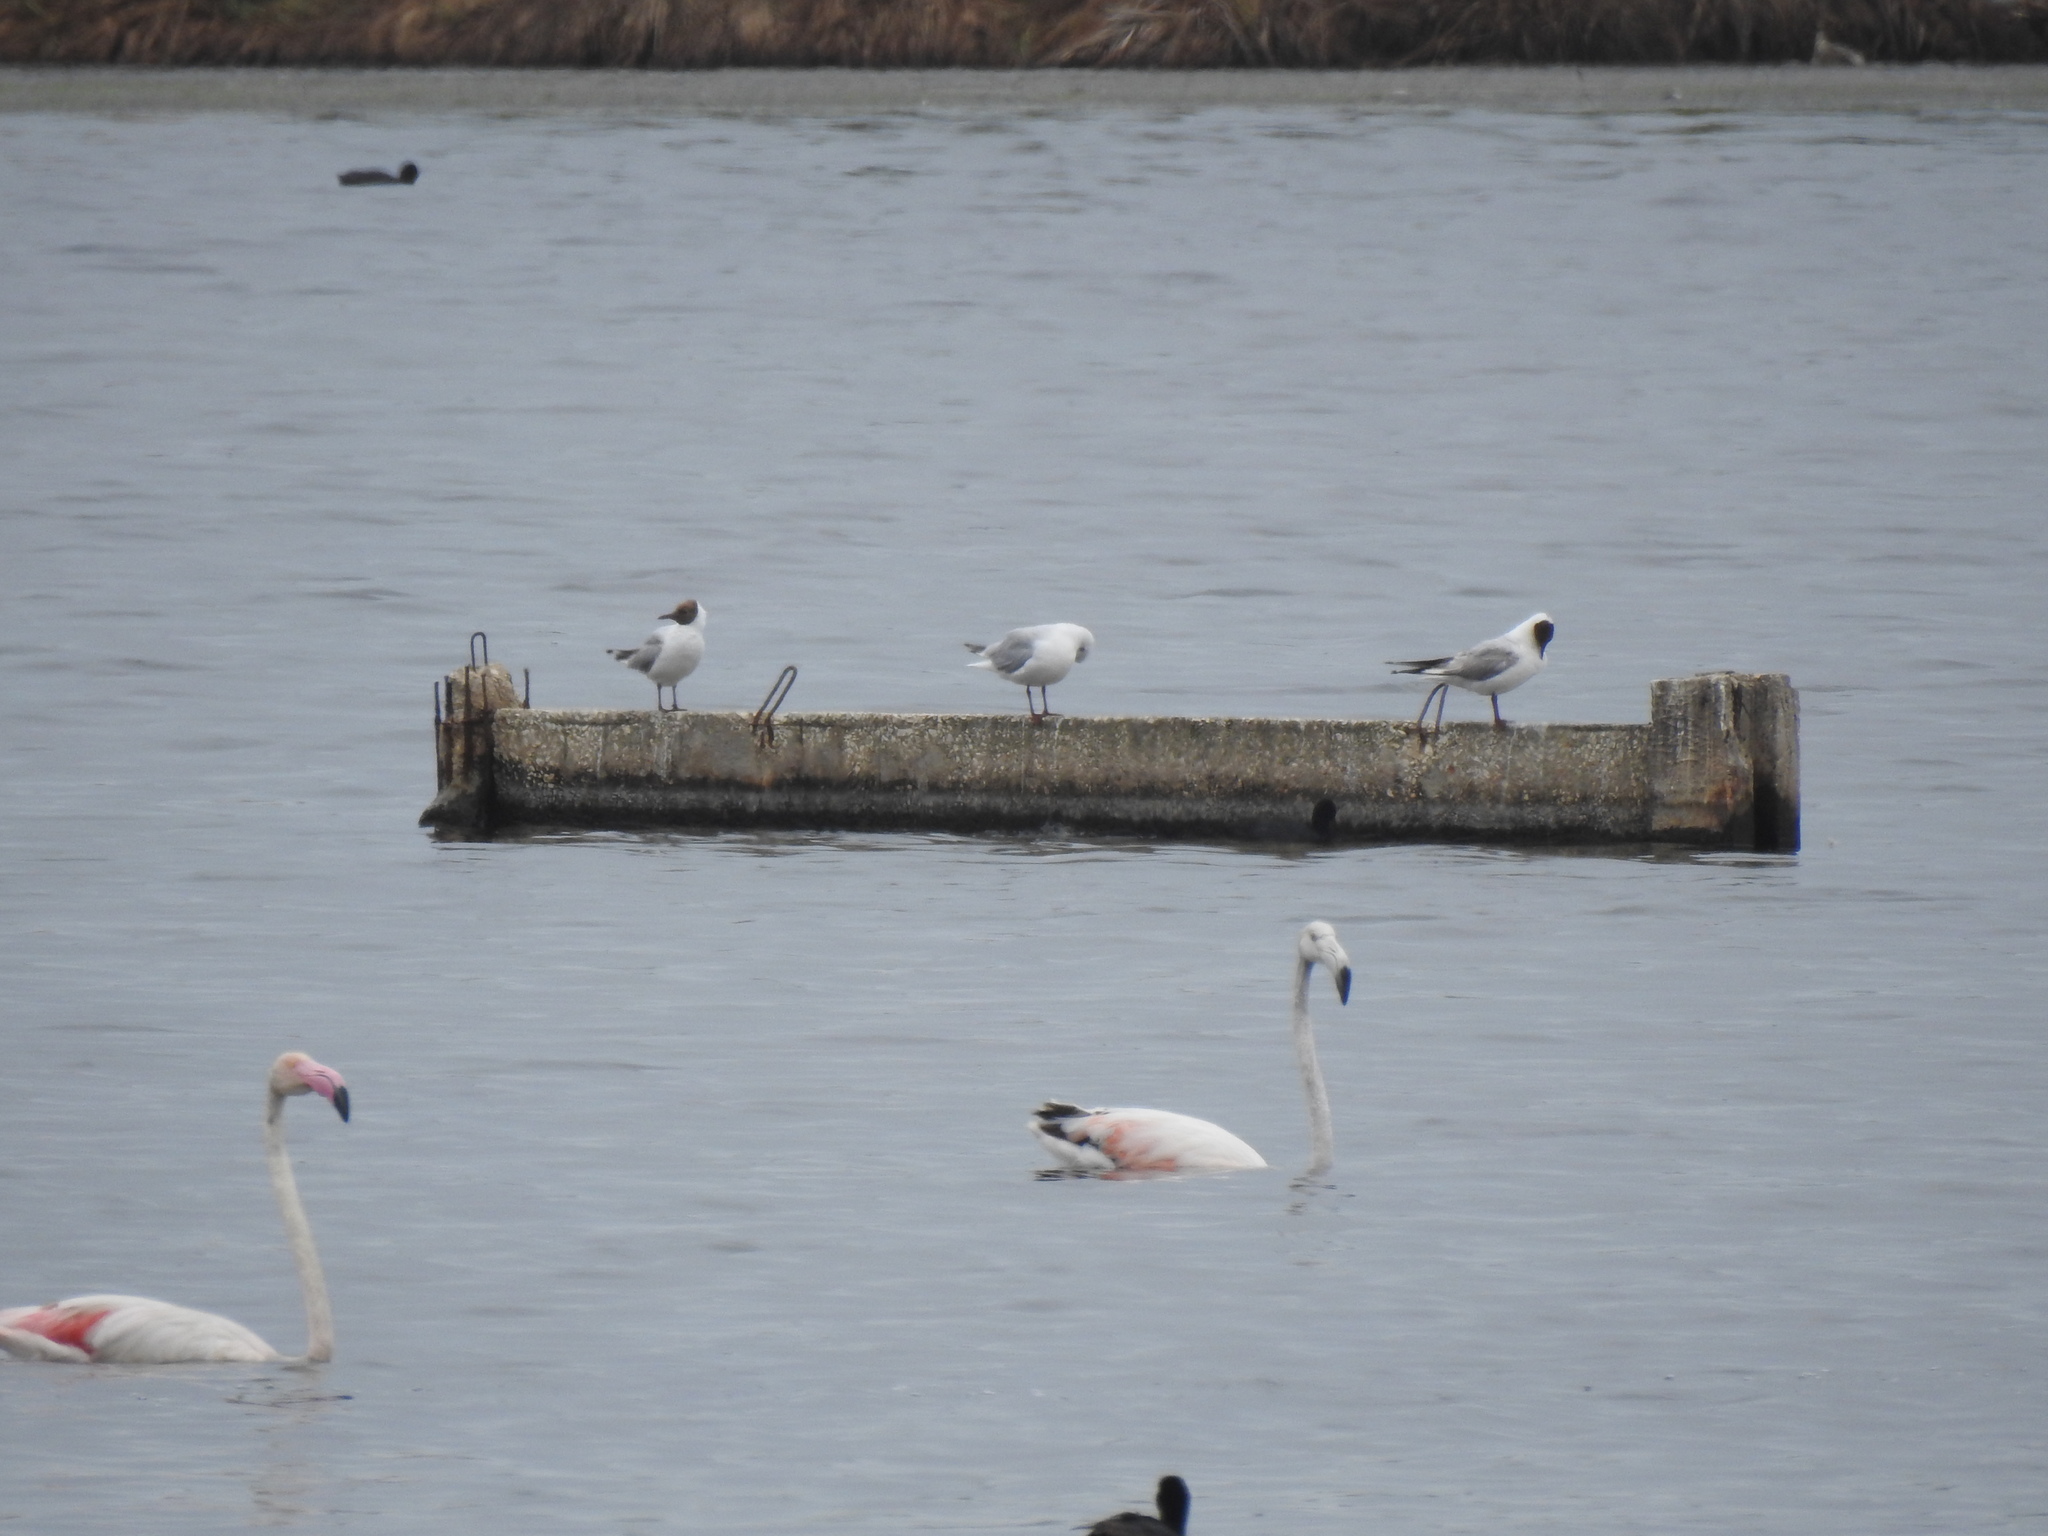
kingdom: Animalia
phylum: Chordata
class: Aves
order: Phoenicopteriformes
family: Phoenicopteridae
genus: Phoenicopterus
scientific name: Phoenicopterus roseus
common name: Greater flamingo
